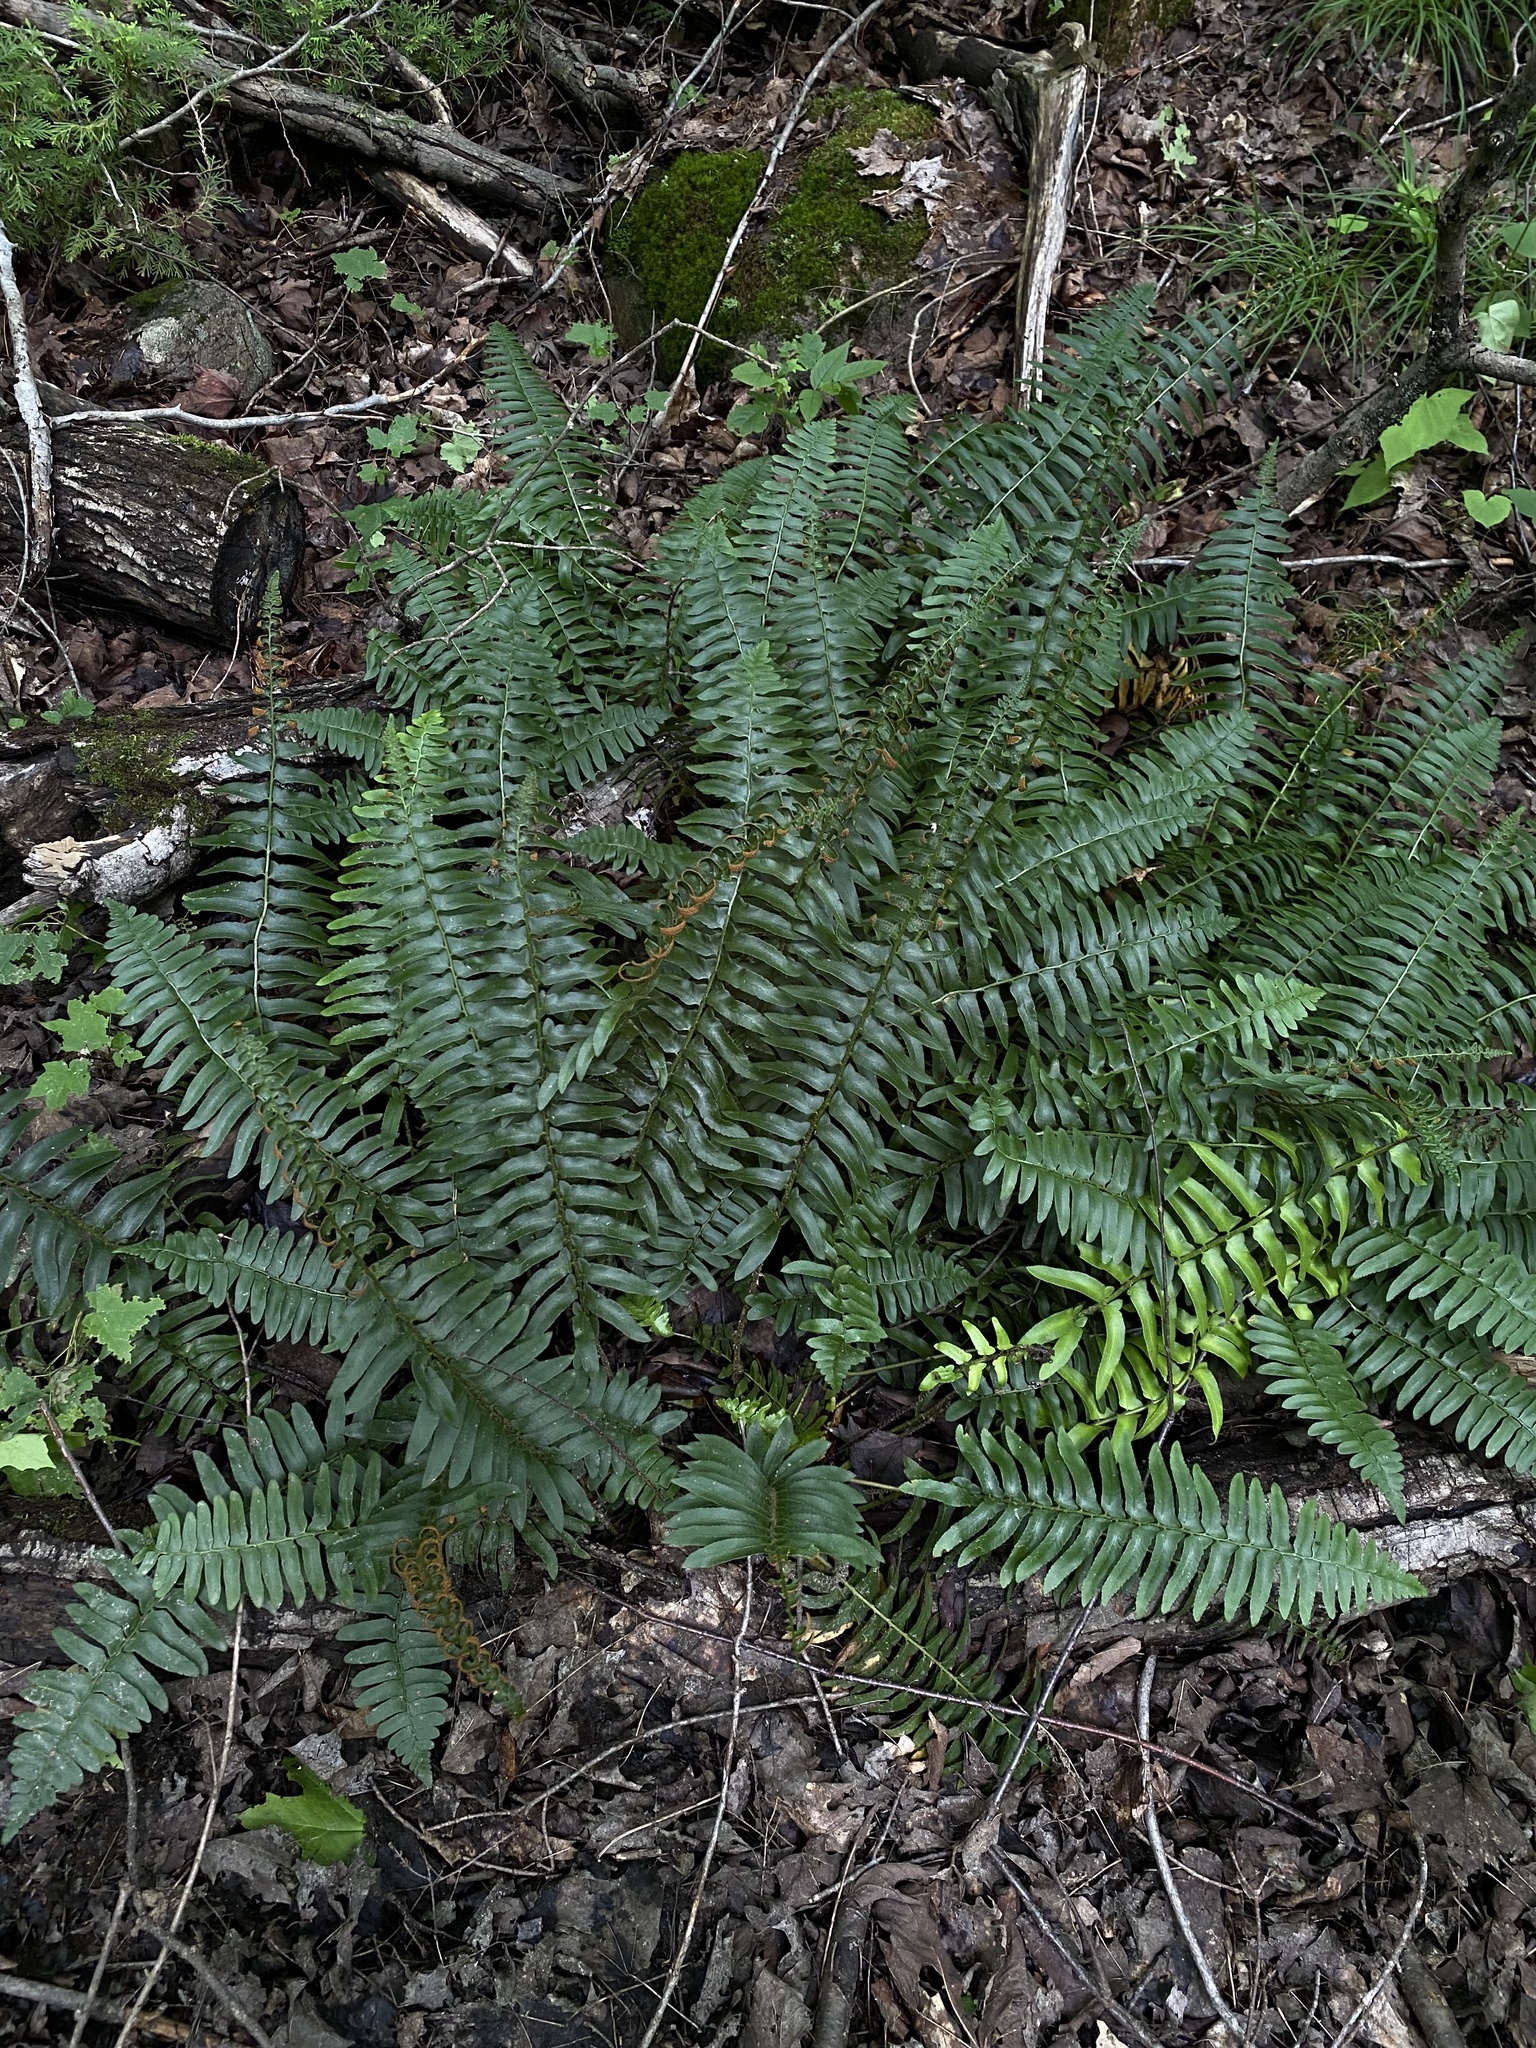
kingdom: Plantae
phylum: Tracheophyta
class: Polypodiopsida
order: Polypodiales
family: Dryopteridaceae
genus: Polystichum
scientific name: Polystichum acrostichoides
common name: Christmas fern
